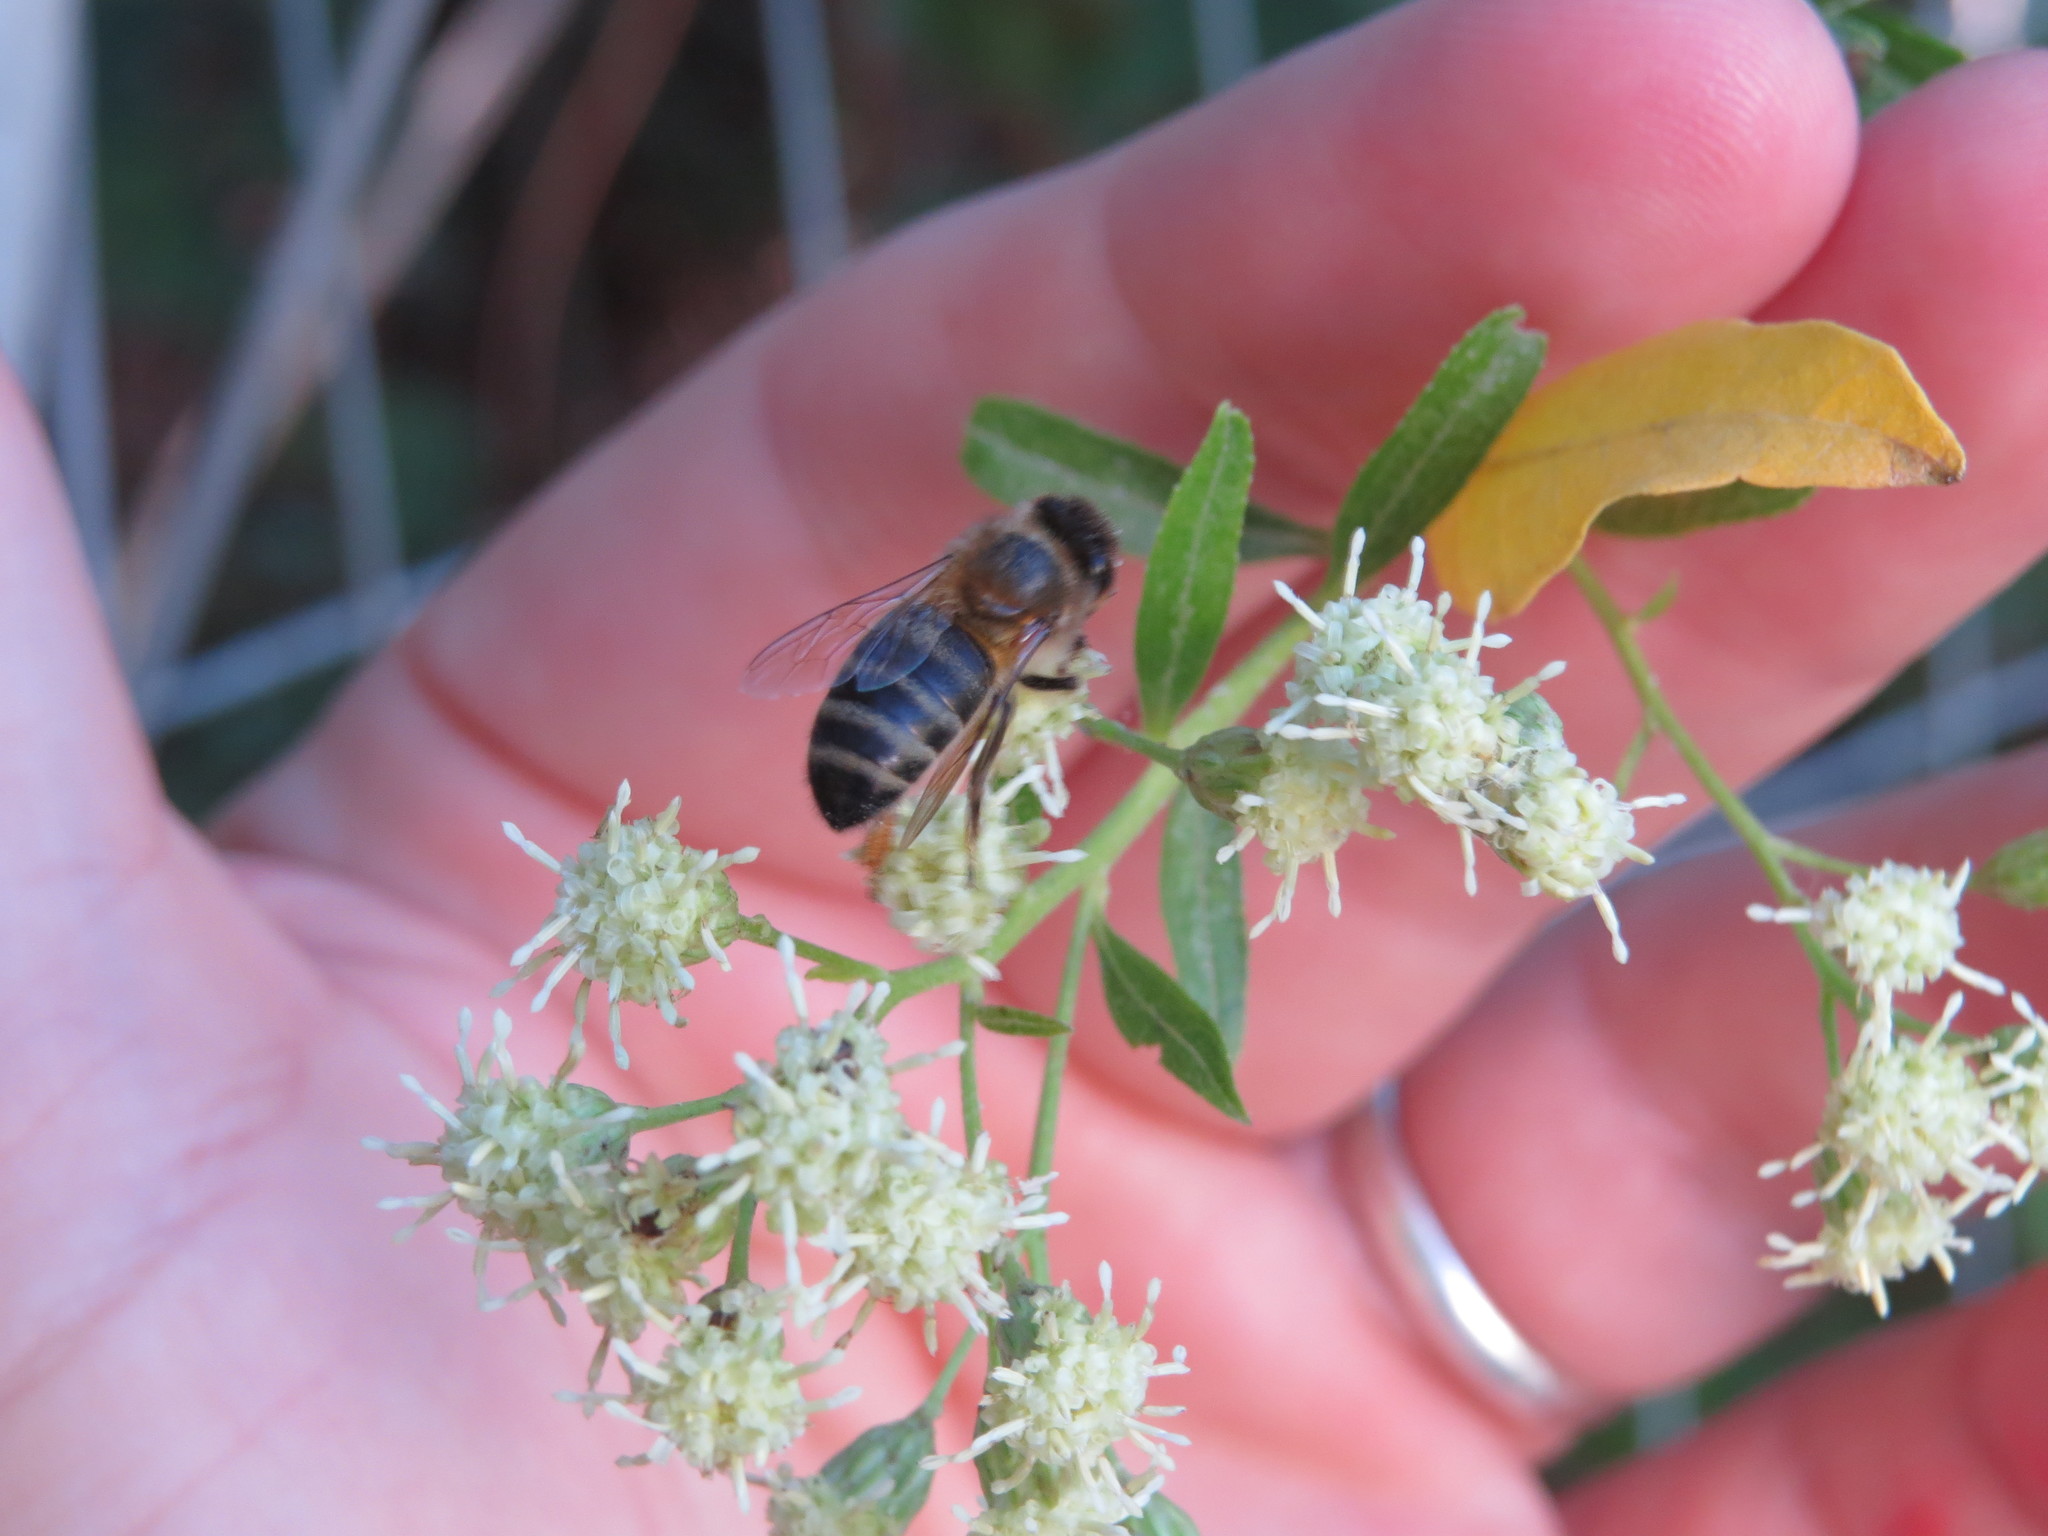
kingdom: Animalia
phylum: Arthropoda
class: Insecta
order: Hymenoptera
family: Apidae
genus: Apis
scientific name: Apis mellifera
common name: Honey bee
